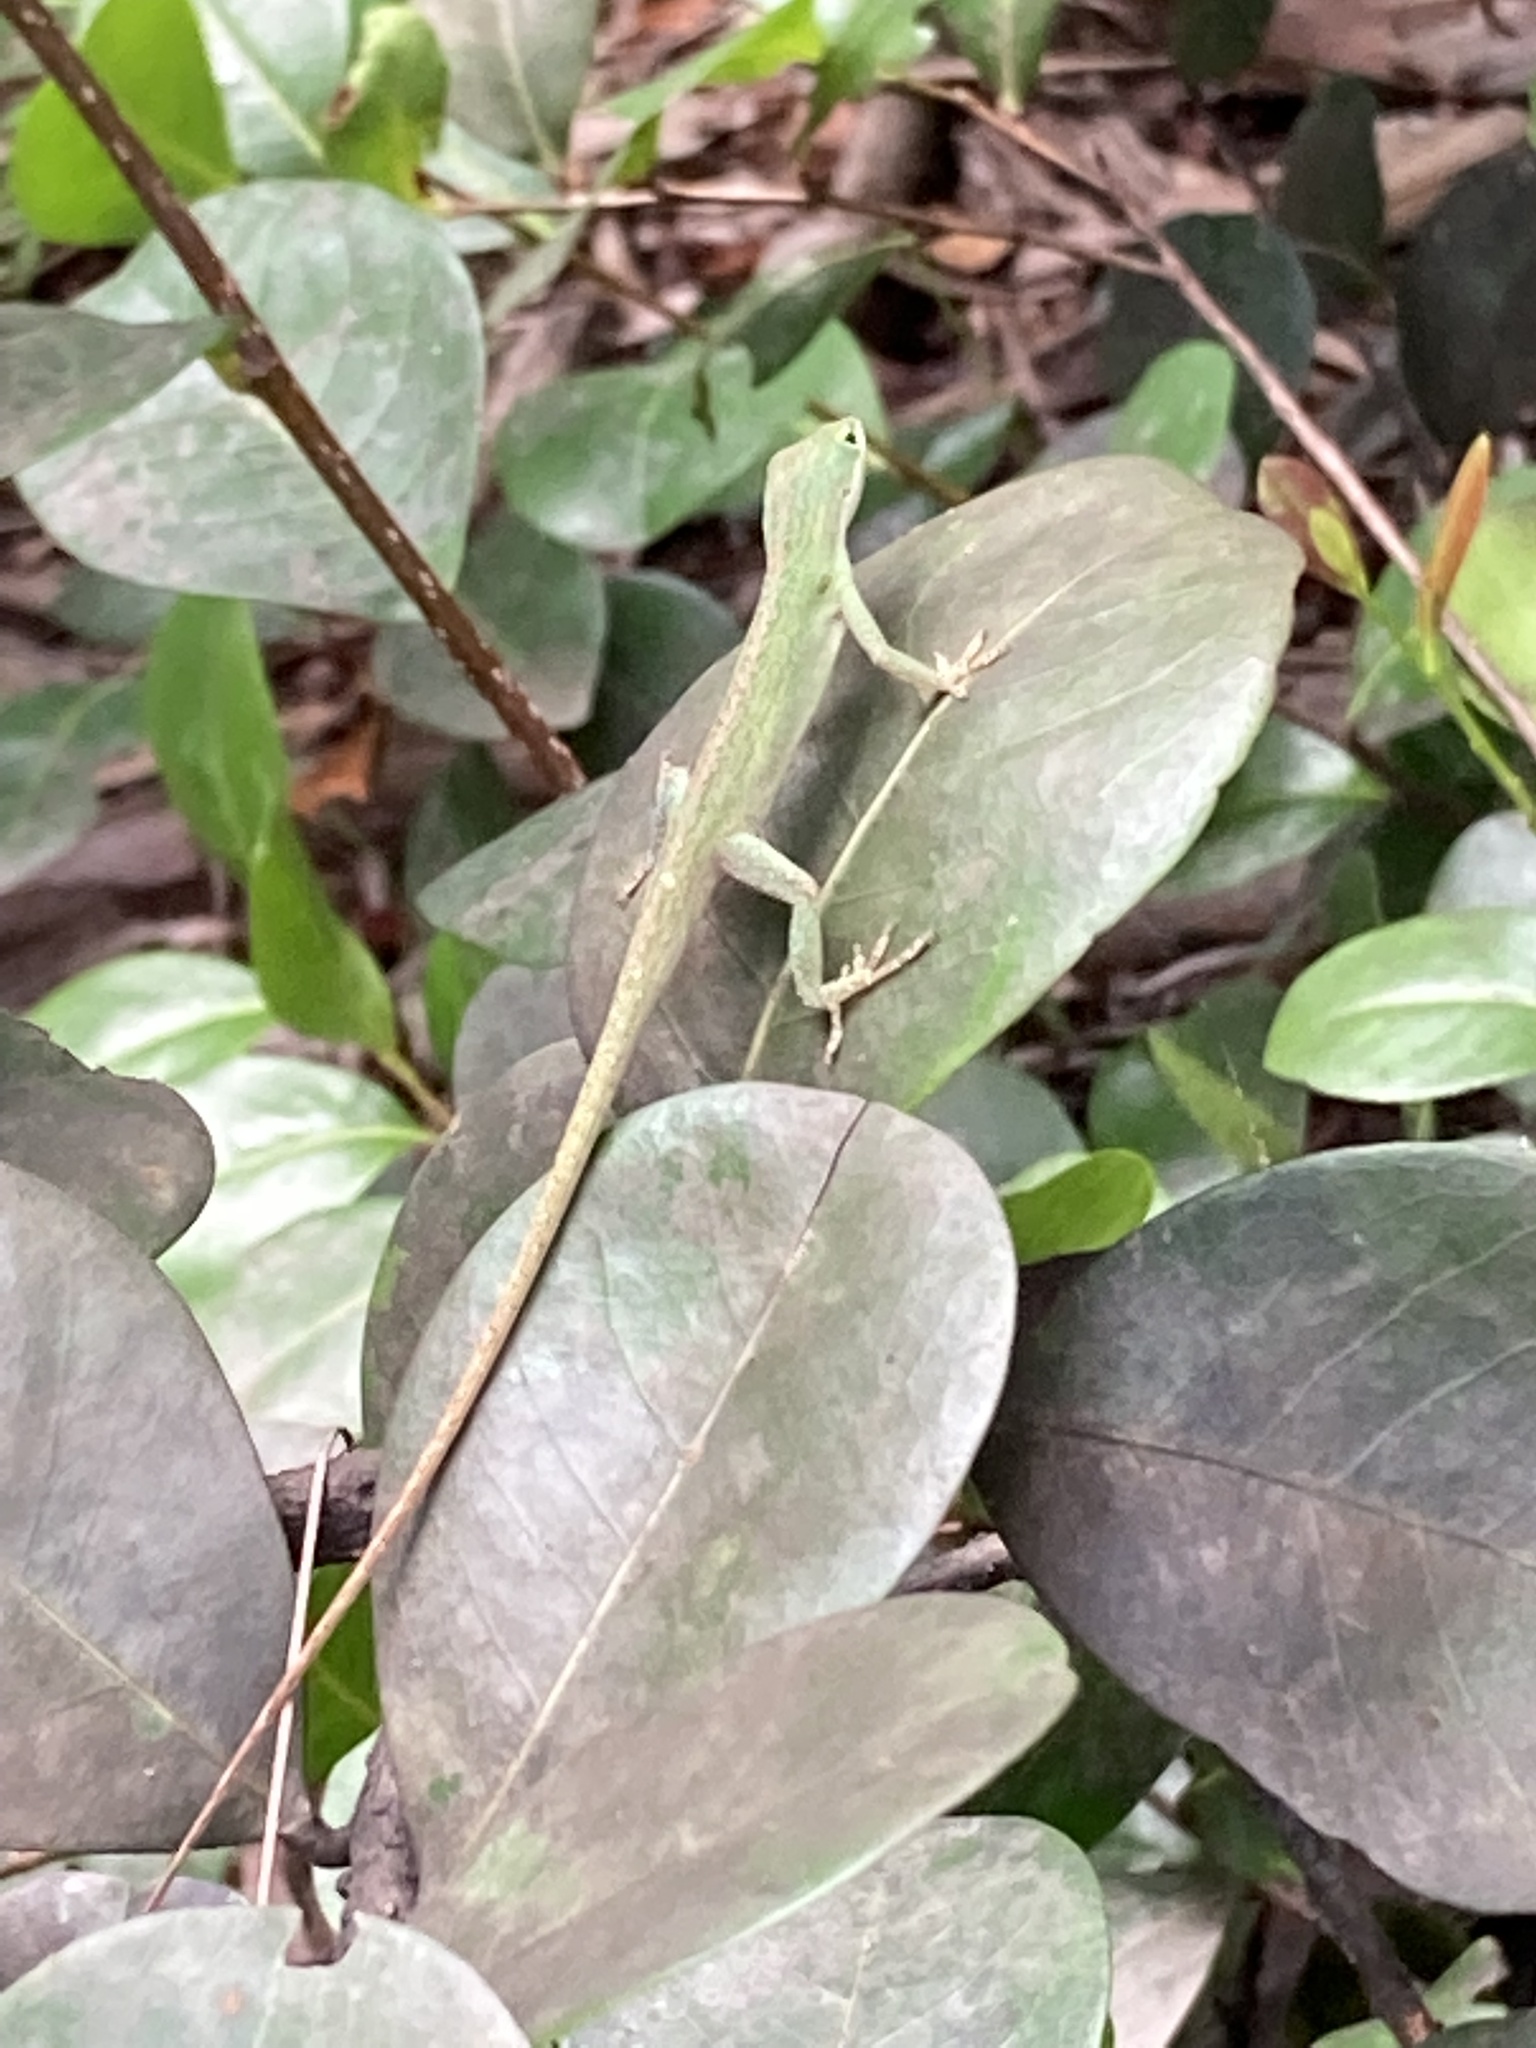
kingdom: Animalia
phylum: Chordata
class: Squamata
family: Dactyloidae
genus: Anolis
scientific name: Anolis carolinensis
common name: Green anole
